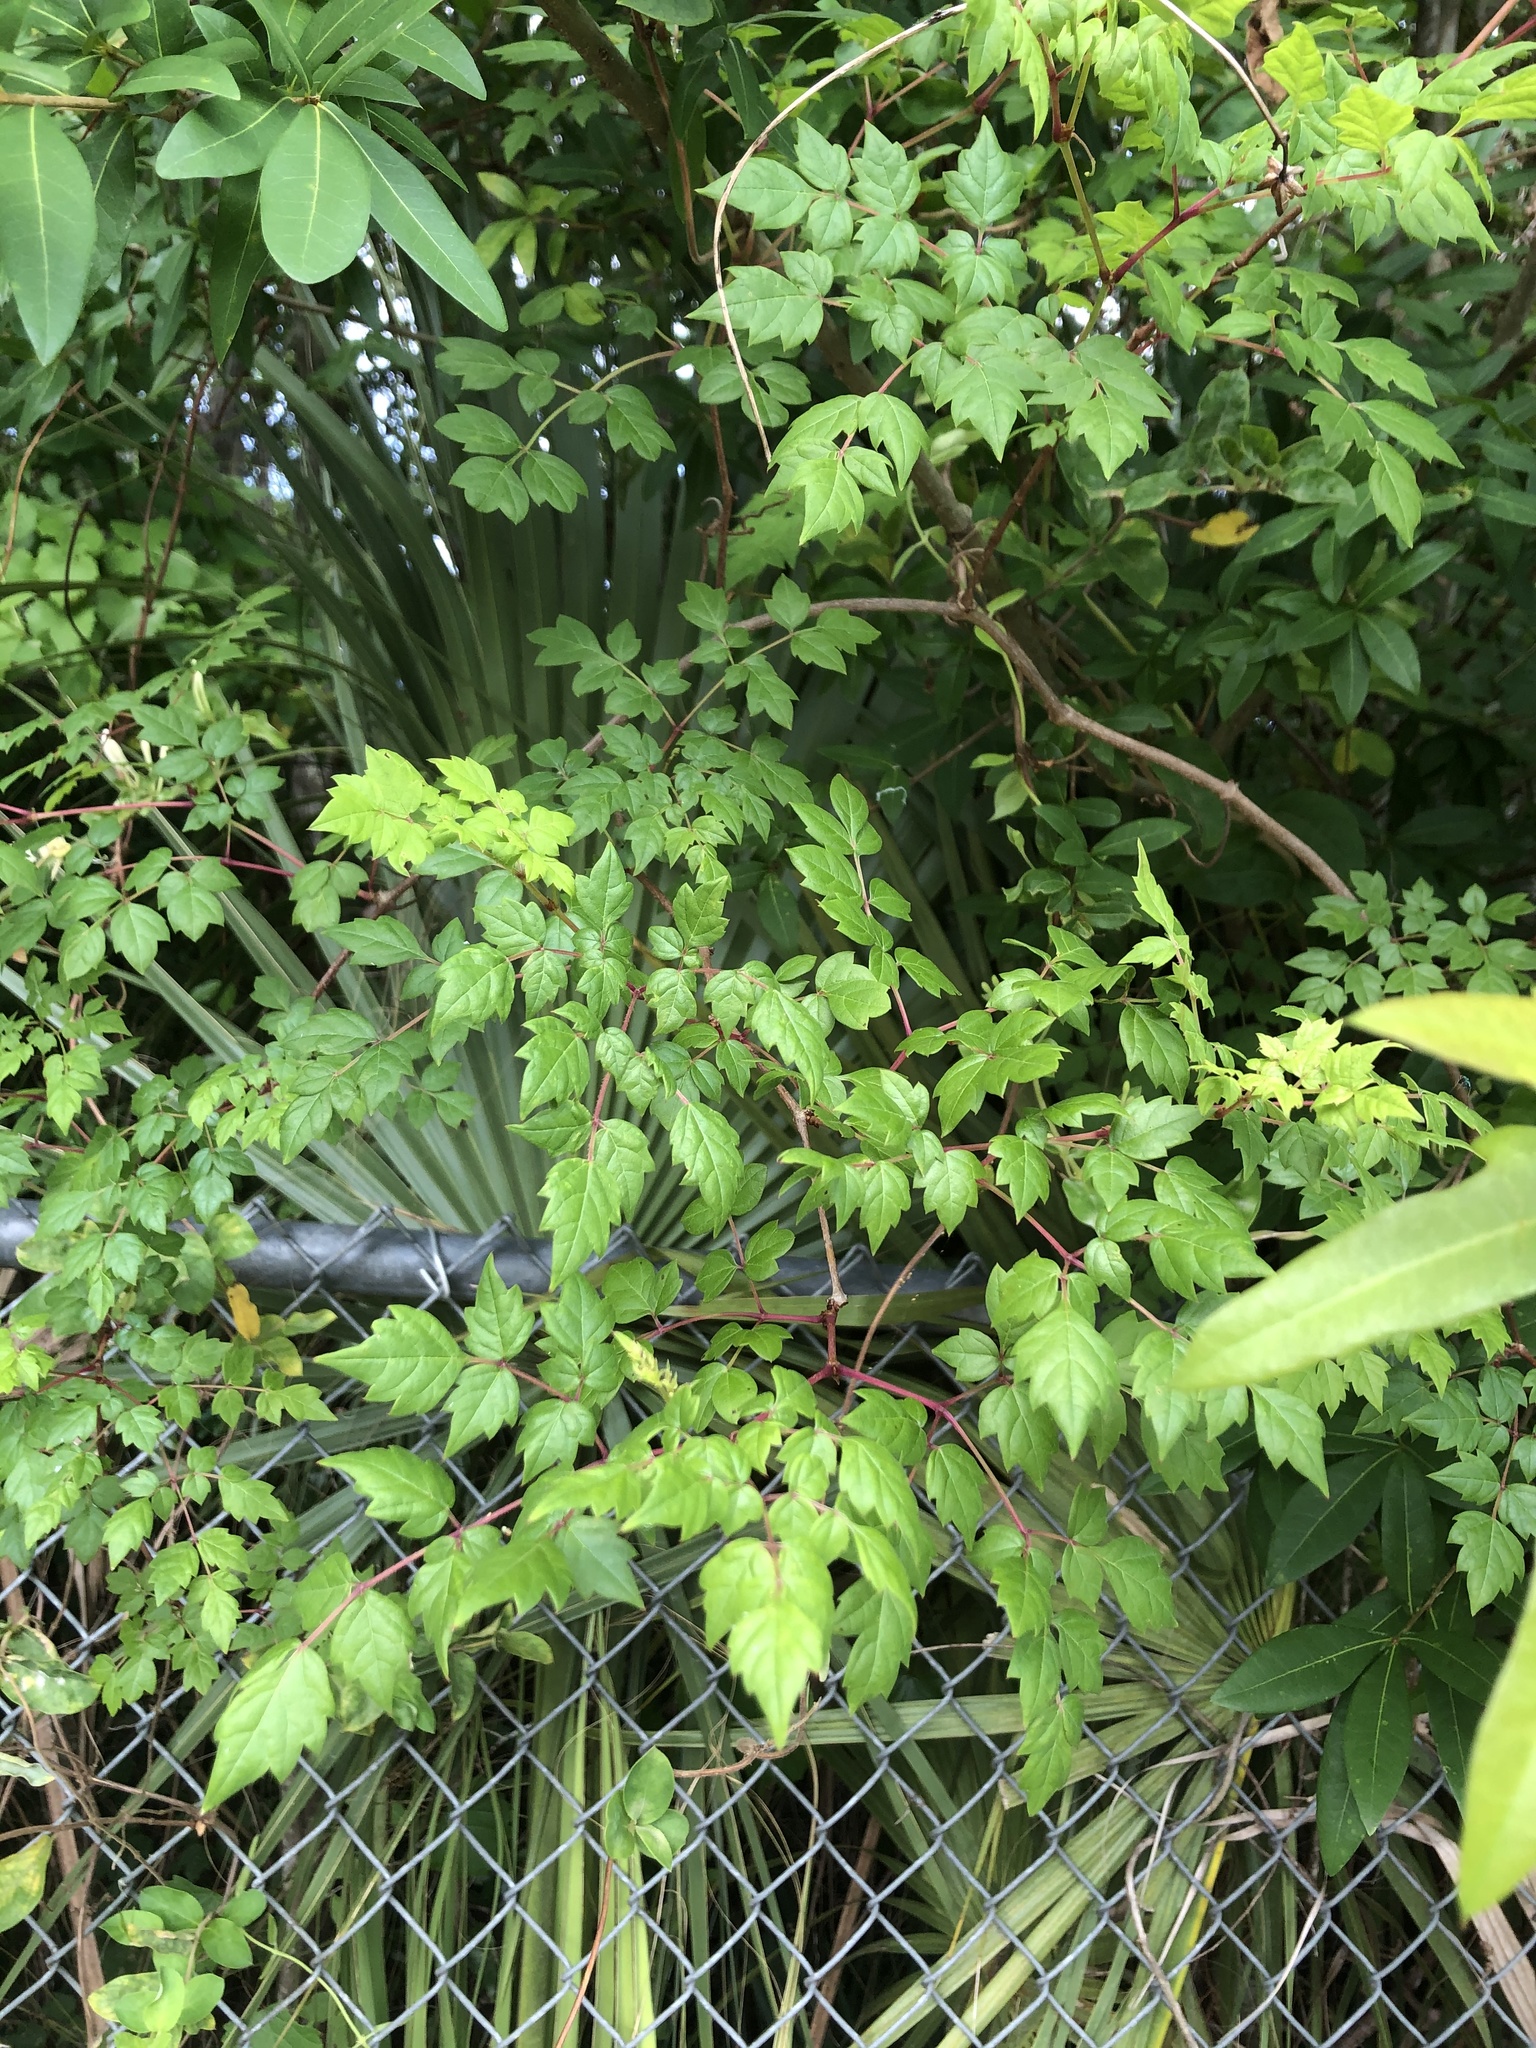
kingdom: Plantae
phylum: Tracheophyta
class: Magnoliopsida
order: Vitales
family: Vitaceae
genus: Nekemias
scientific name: Nekemias arborea
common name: Peppervine
